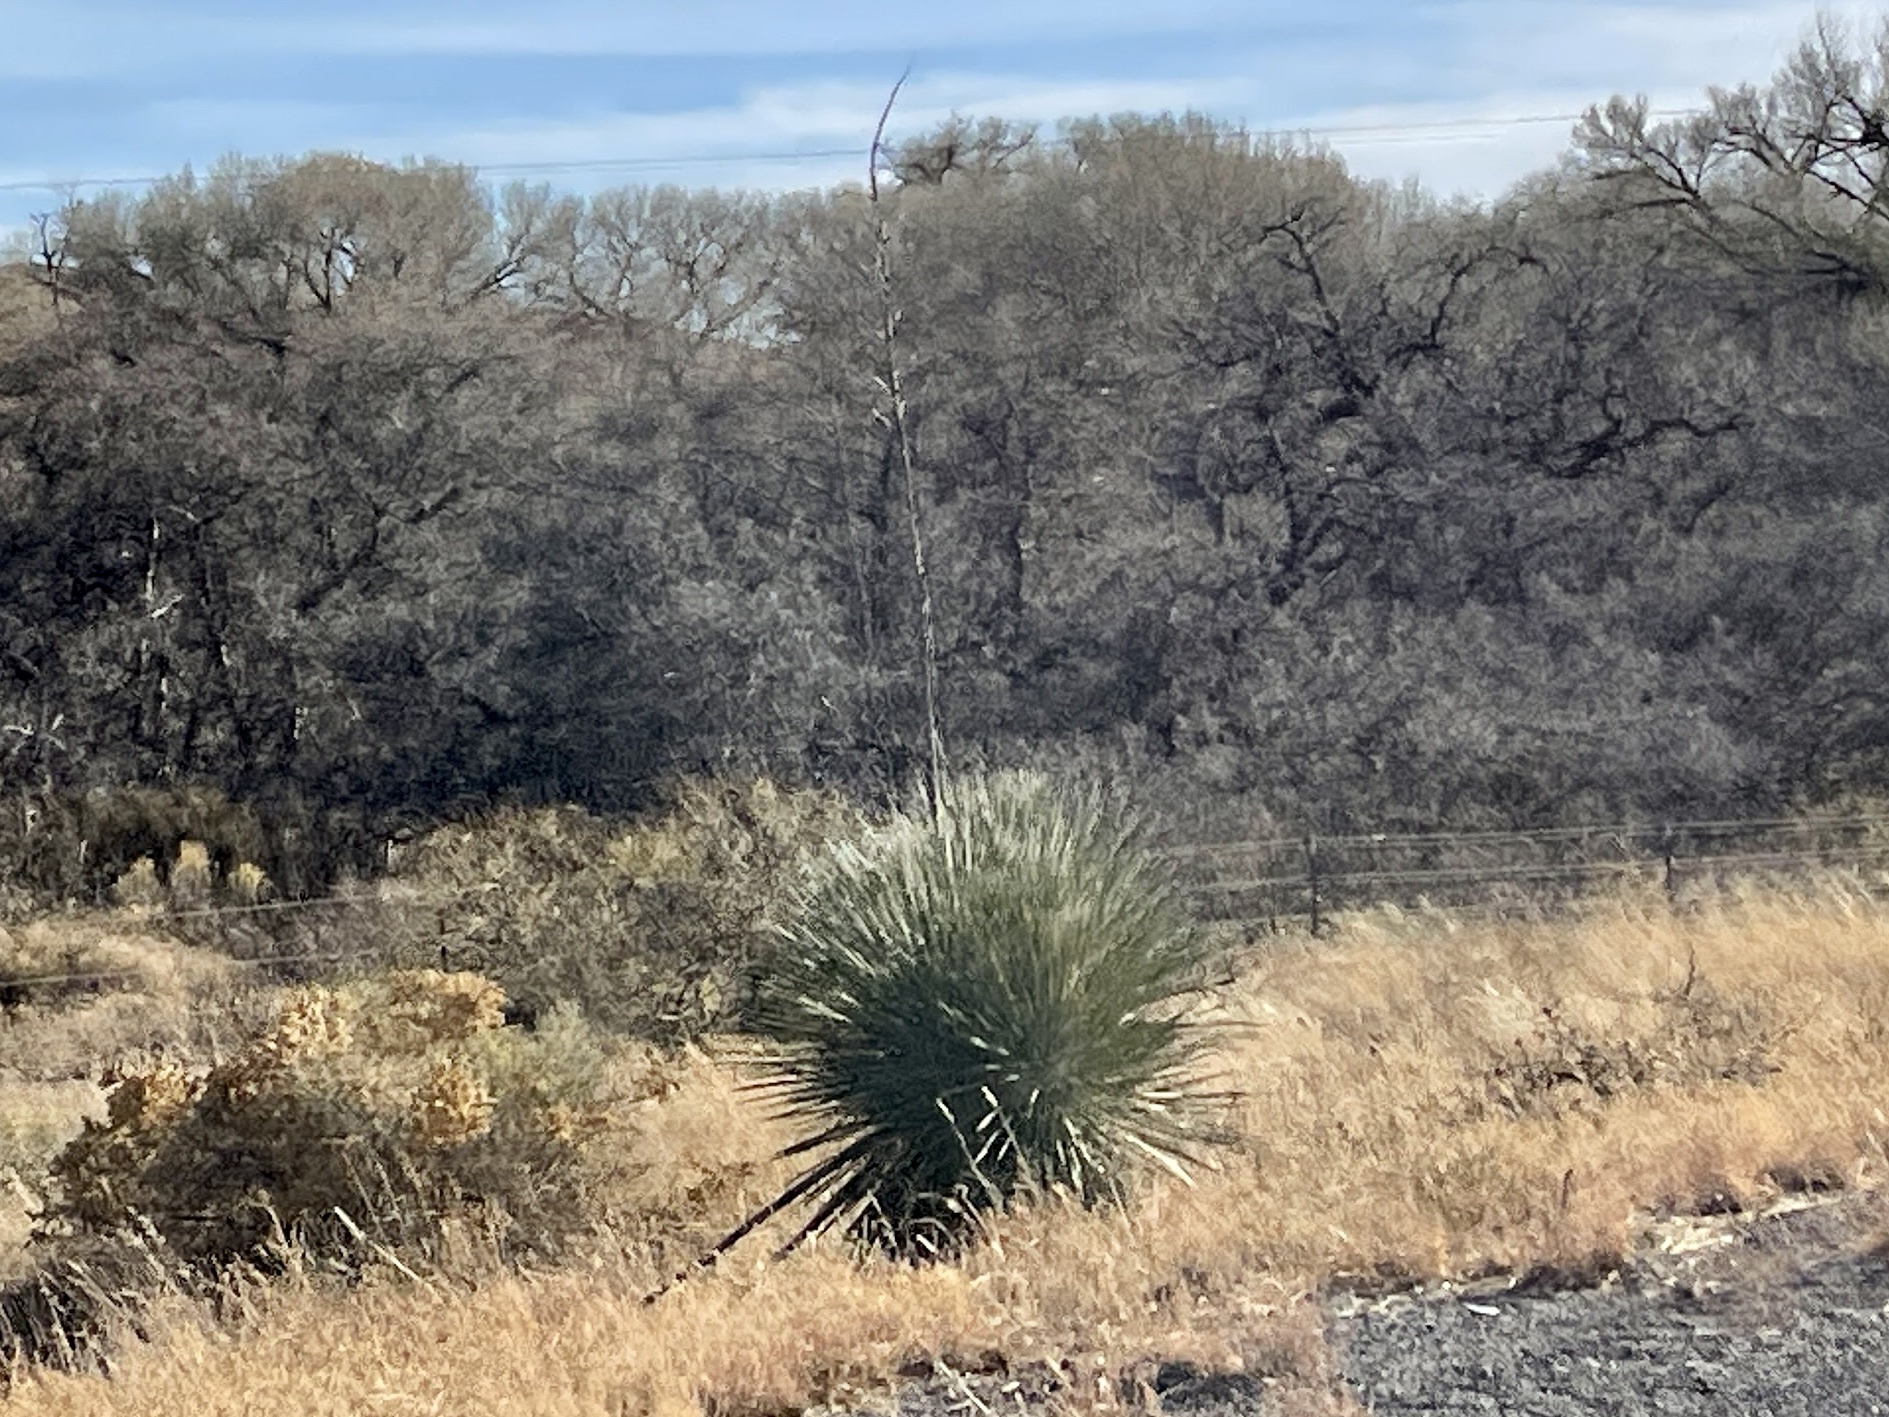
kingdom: Plantae
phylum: Tracheophyta
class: Liliopsida
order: Asparagales
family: Asparagaceae
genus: Yucca
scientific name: Yucca elata
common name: Palmella
